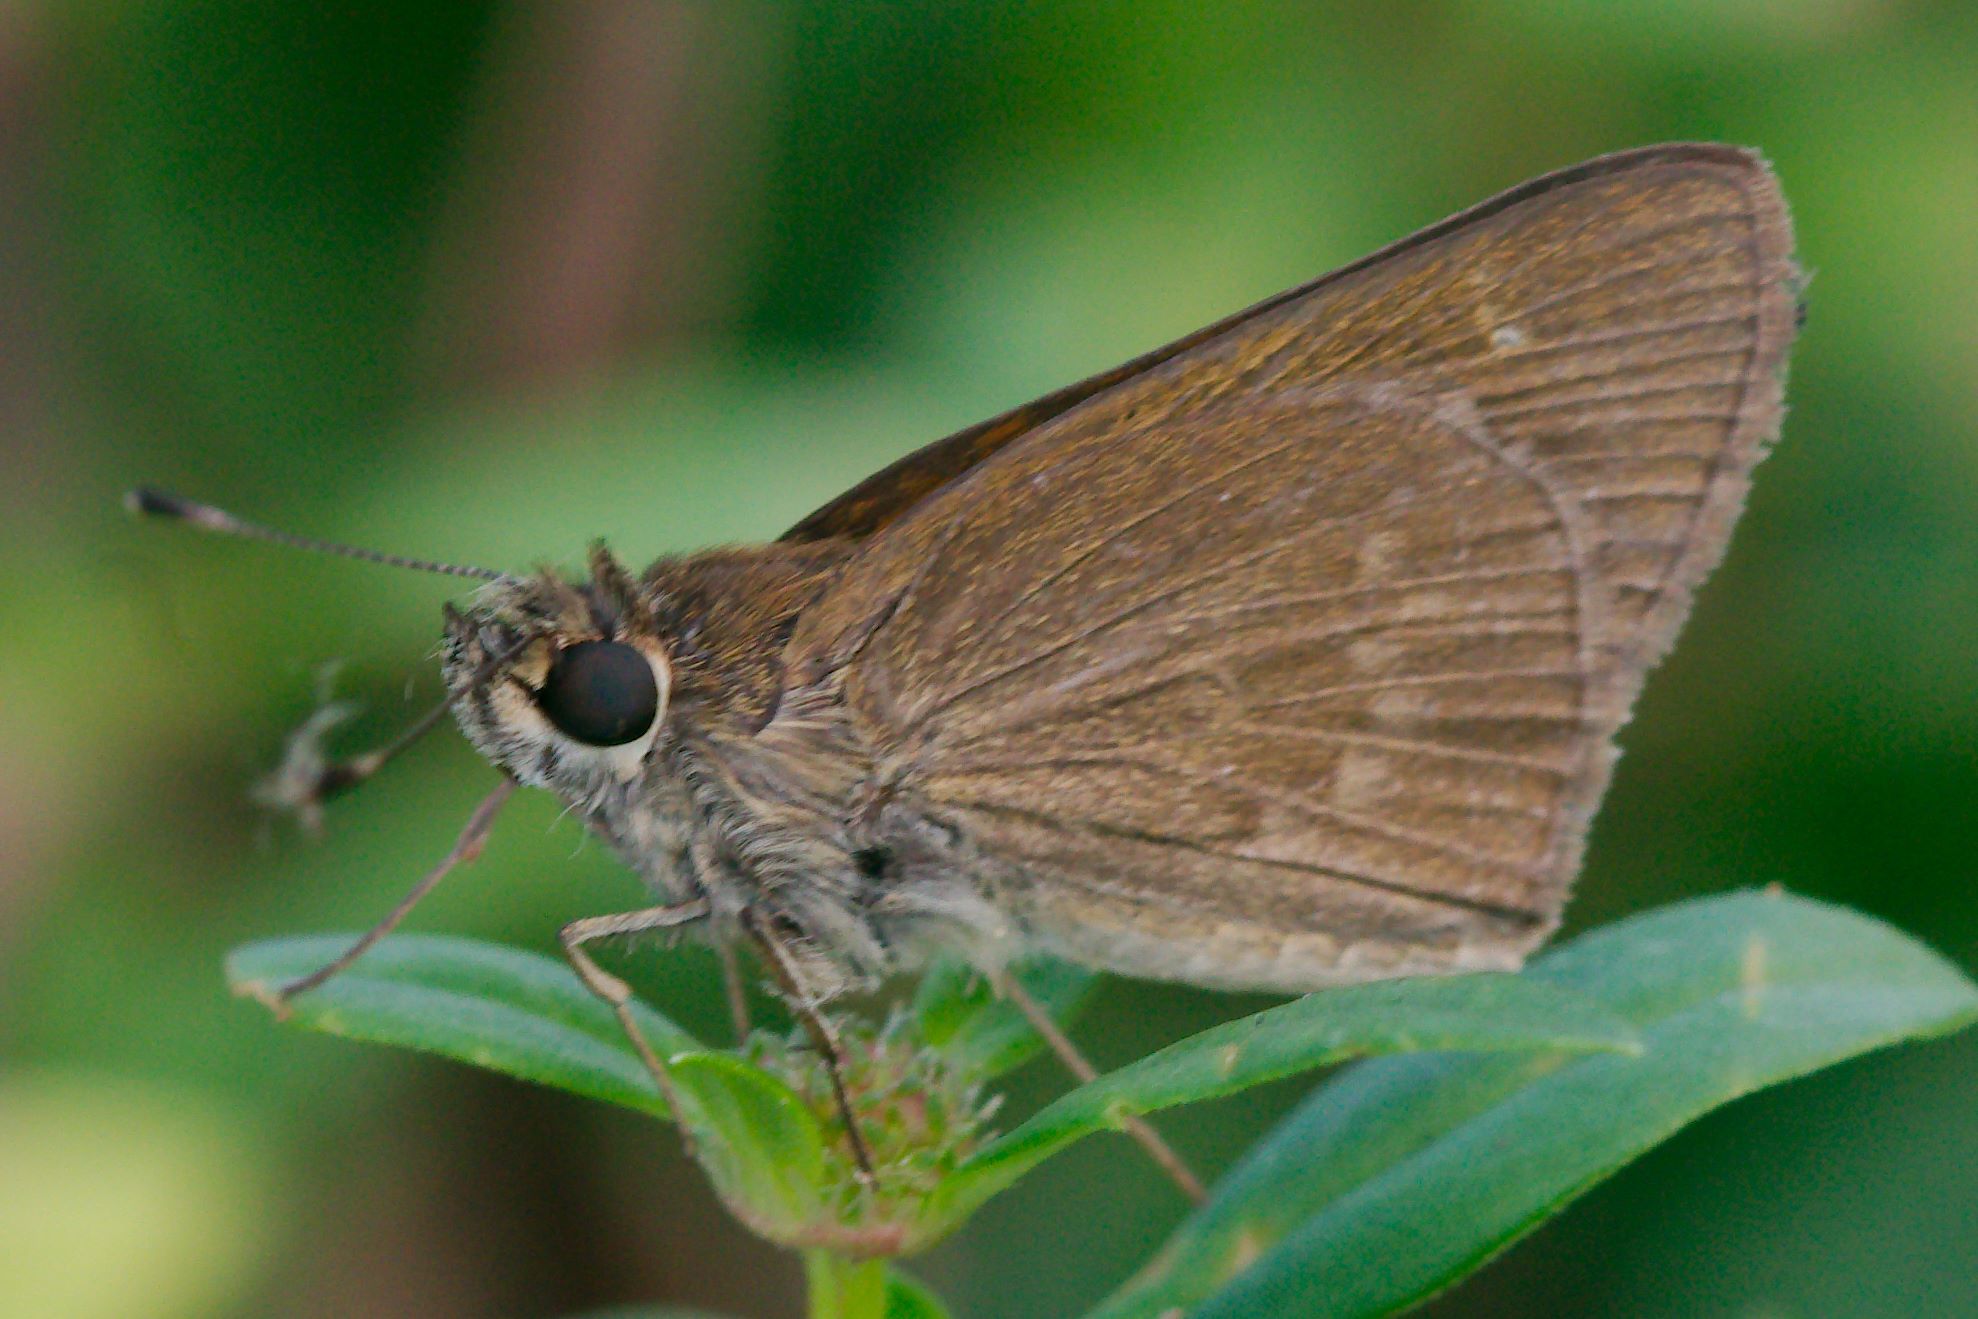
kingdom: Animalia
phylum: Arthropoda
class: Insecta
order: Lepidoptera
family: Hesperiidae
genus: Cymaenes
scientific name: Cymaenes tripunctus
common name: Dingy dotted skipper
